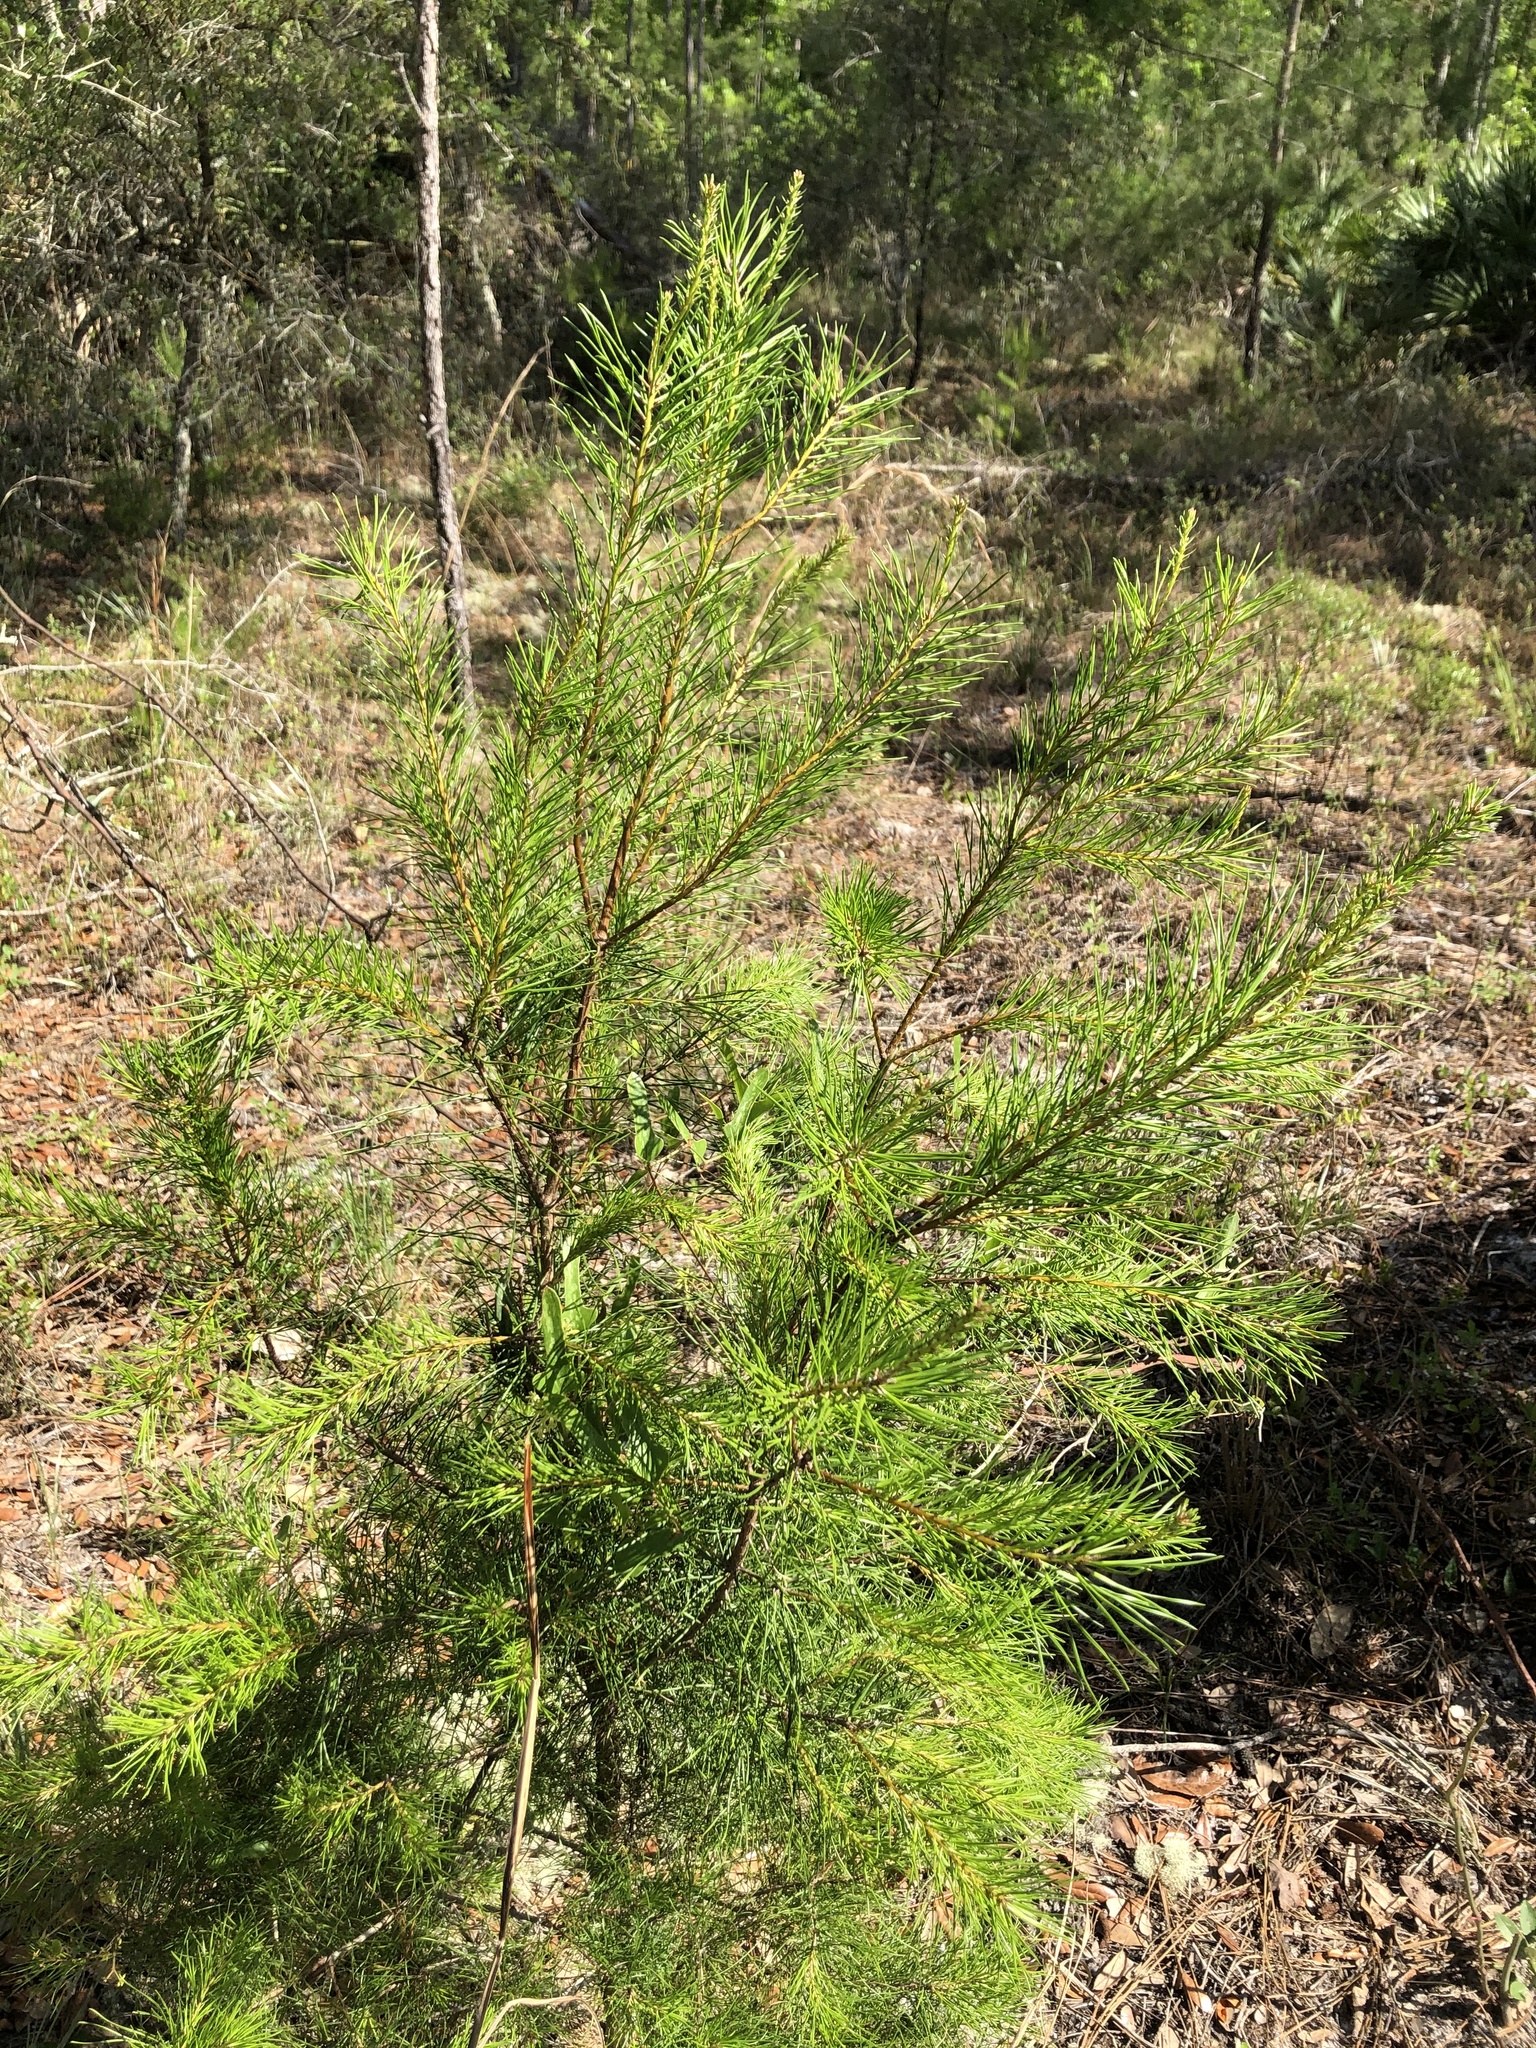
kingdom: Plantae
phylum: Tracheophyta
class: Pinopsida
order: Pinales
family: Pinaceae
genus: Pinus
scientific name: Pinus clausa
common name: Sand pine
